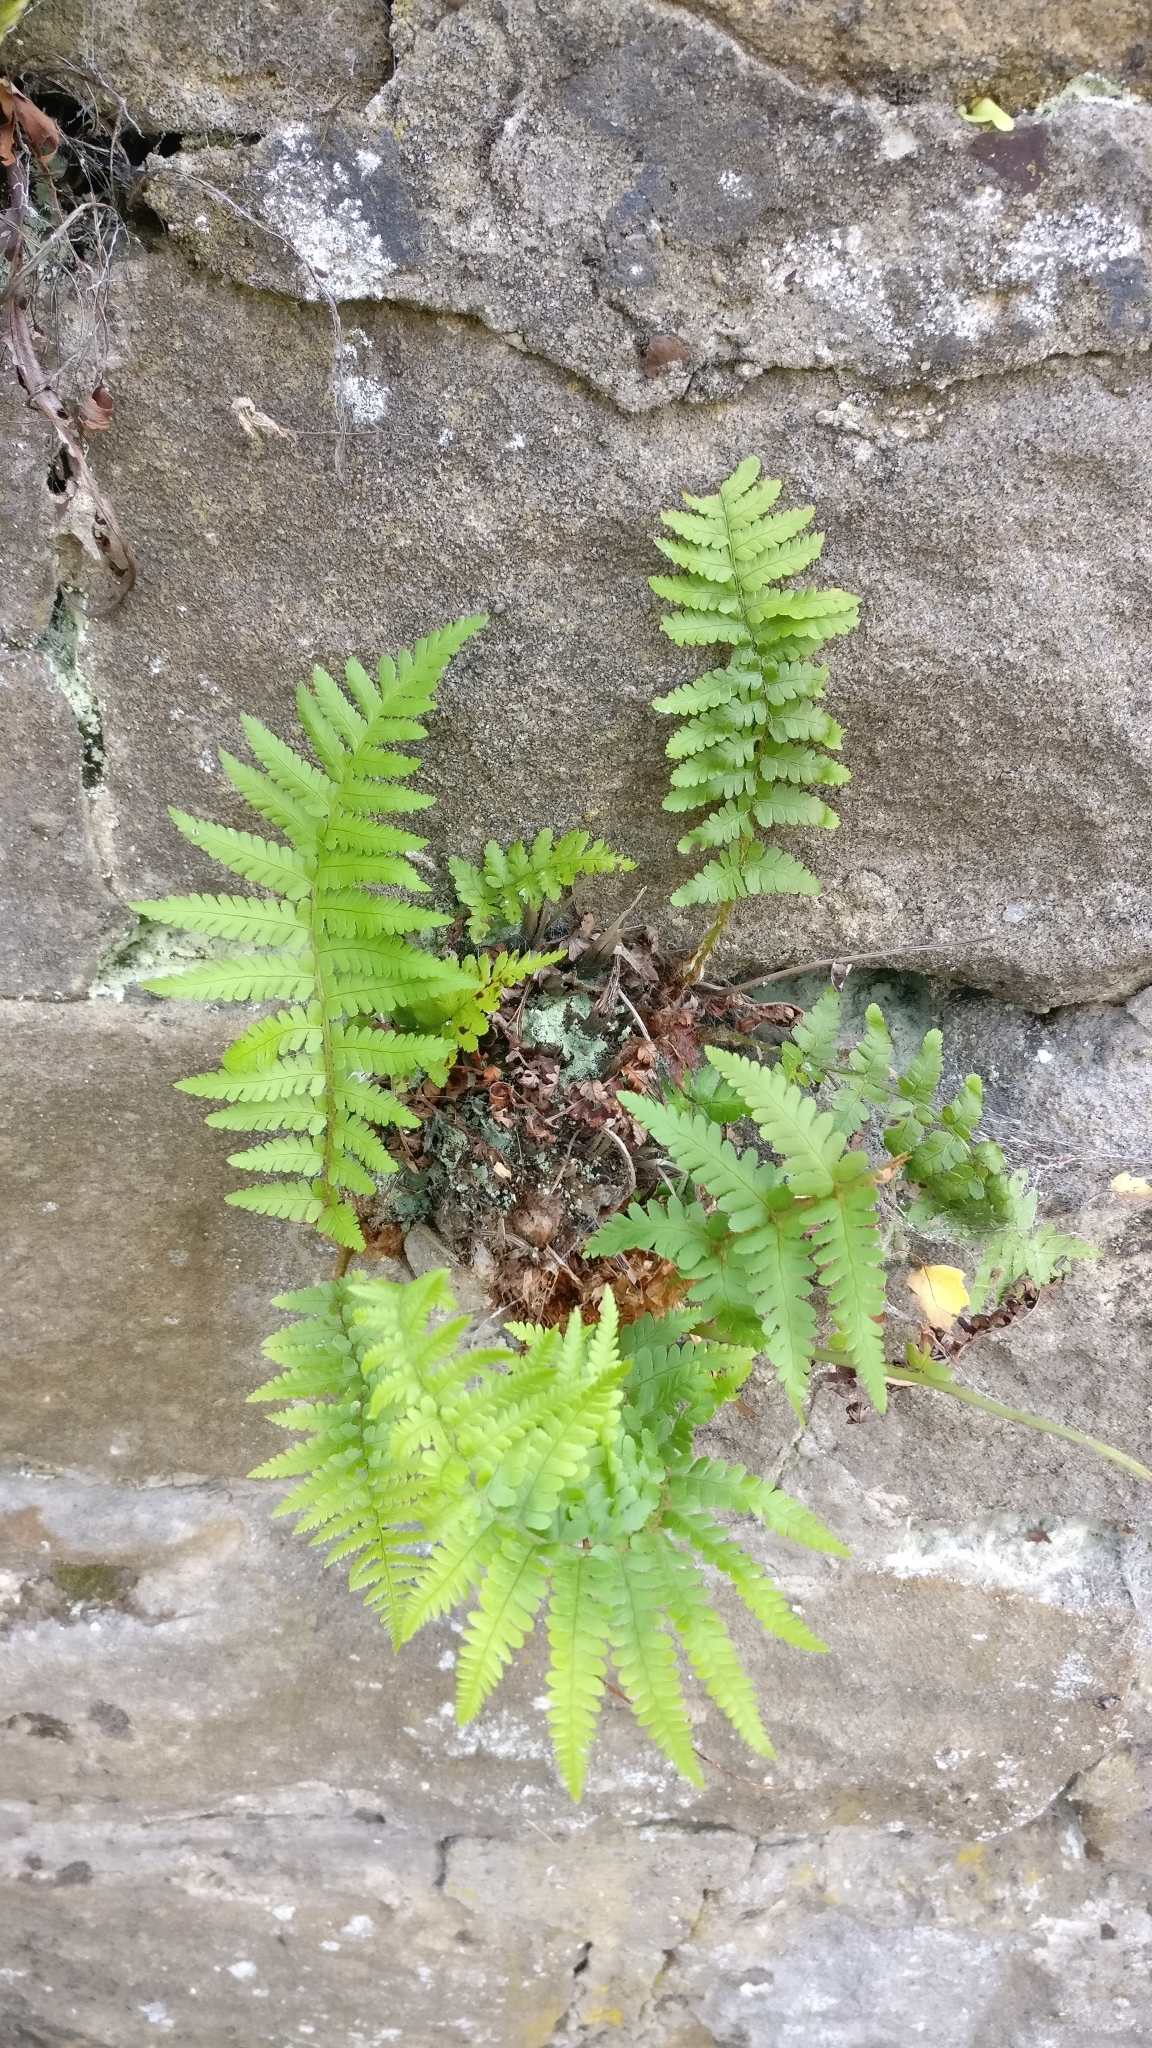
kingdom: Plantae
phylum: Tracheophyta
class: Polypodiopsida
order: Polypodiales
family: Dryopteridaceae
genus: Dryopteris
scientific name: Dryopteris filix-mas
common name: Male fern
